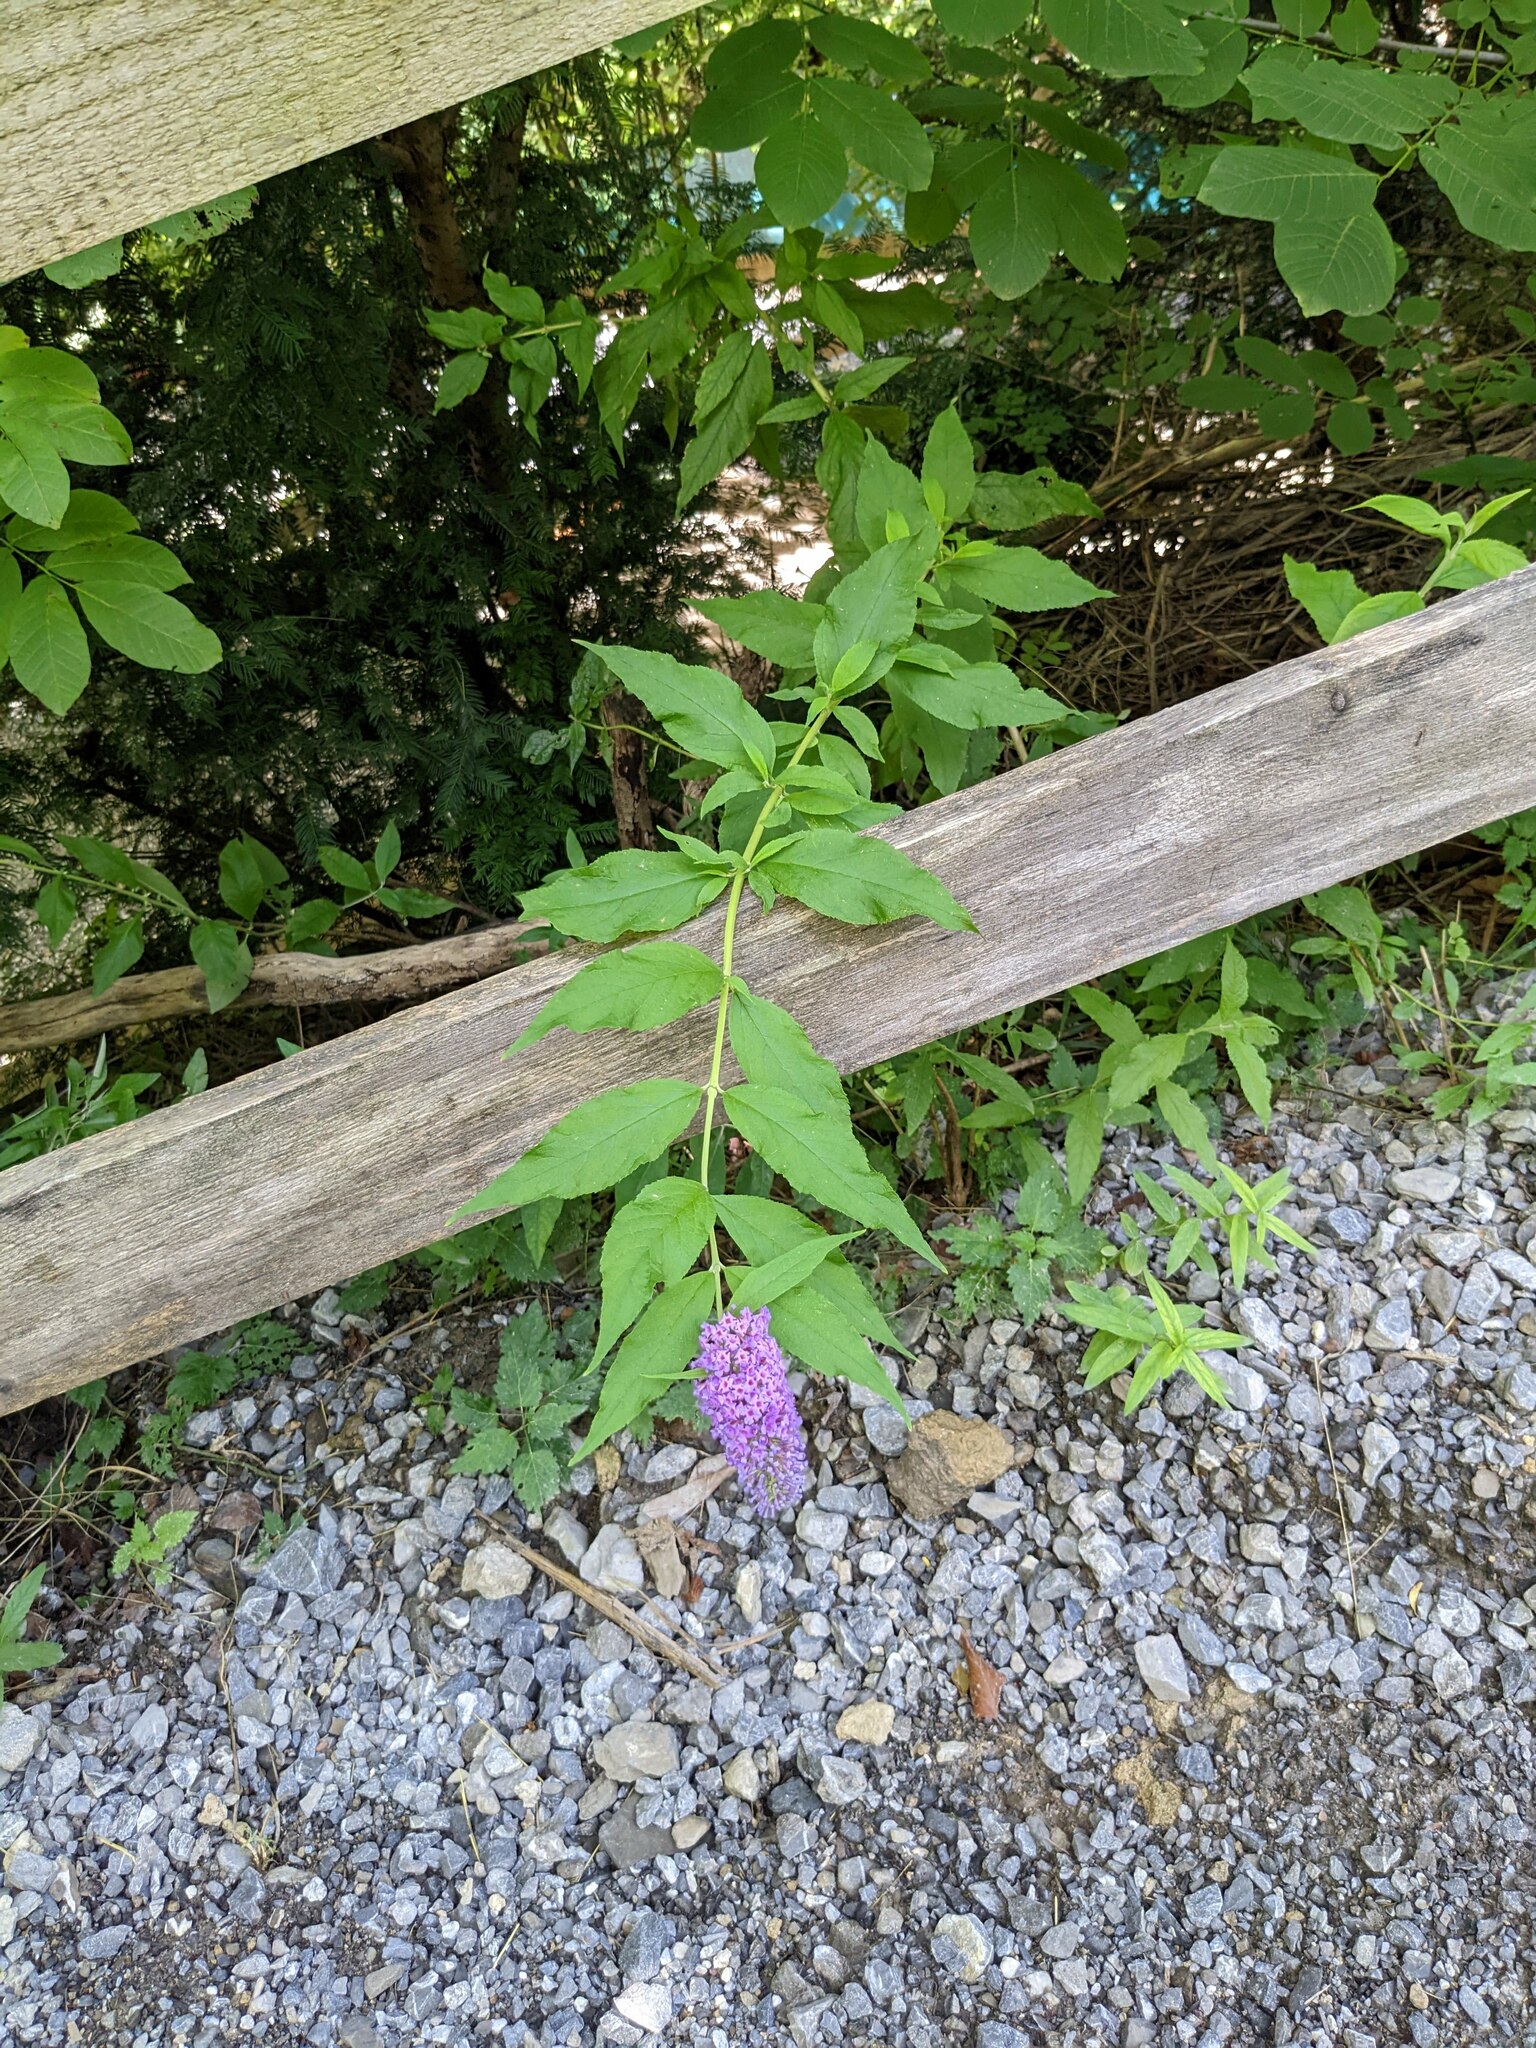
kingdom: Plantae
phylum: Tracheophyta
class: Magnoliopsida
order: Lamiales
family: Scrophulariaceae
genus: Buddleja
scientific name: Buddleja davidii
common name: Butterfly-bush
